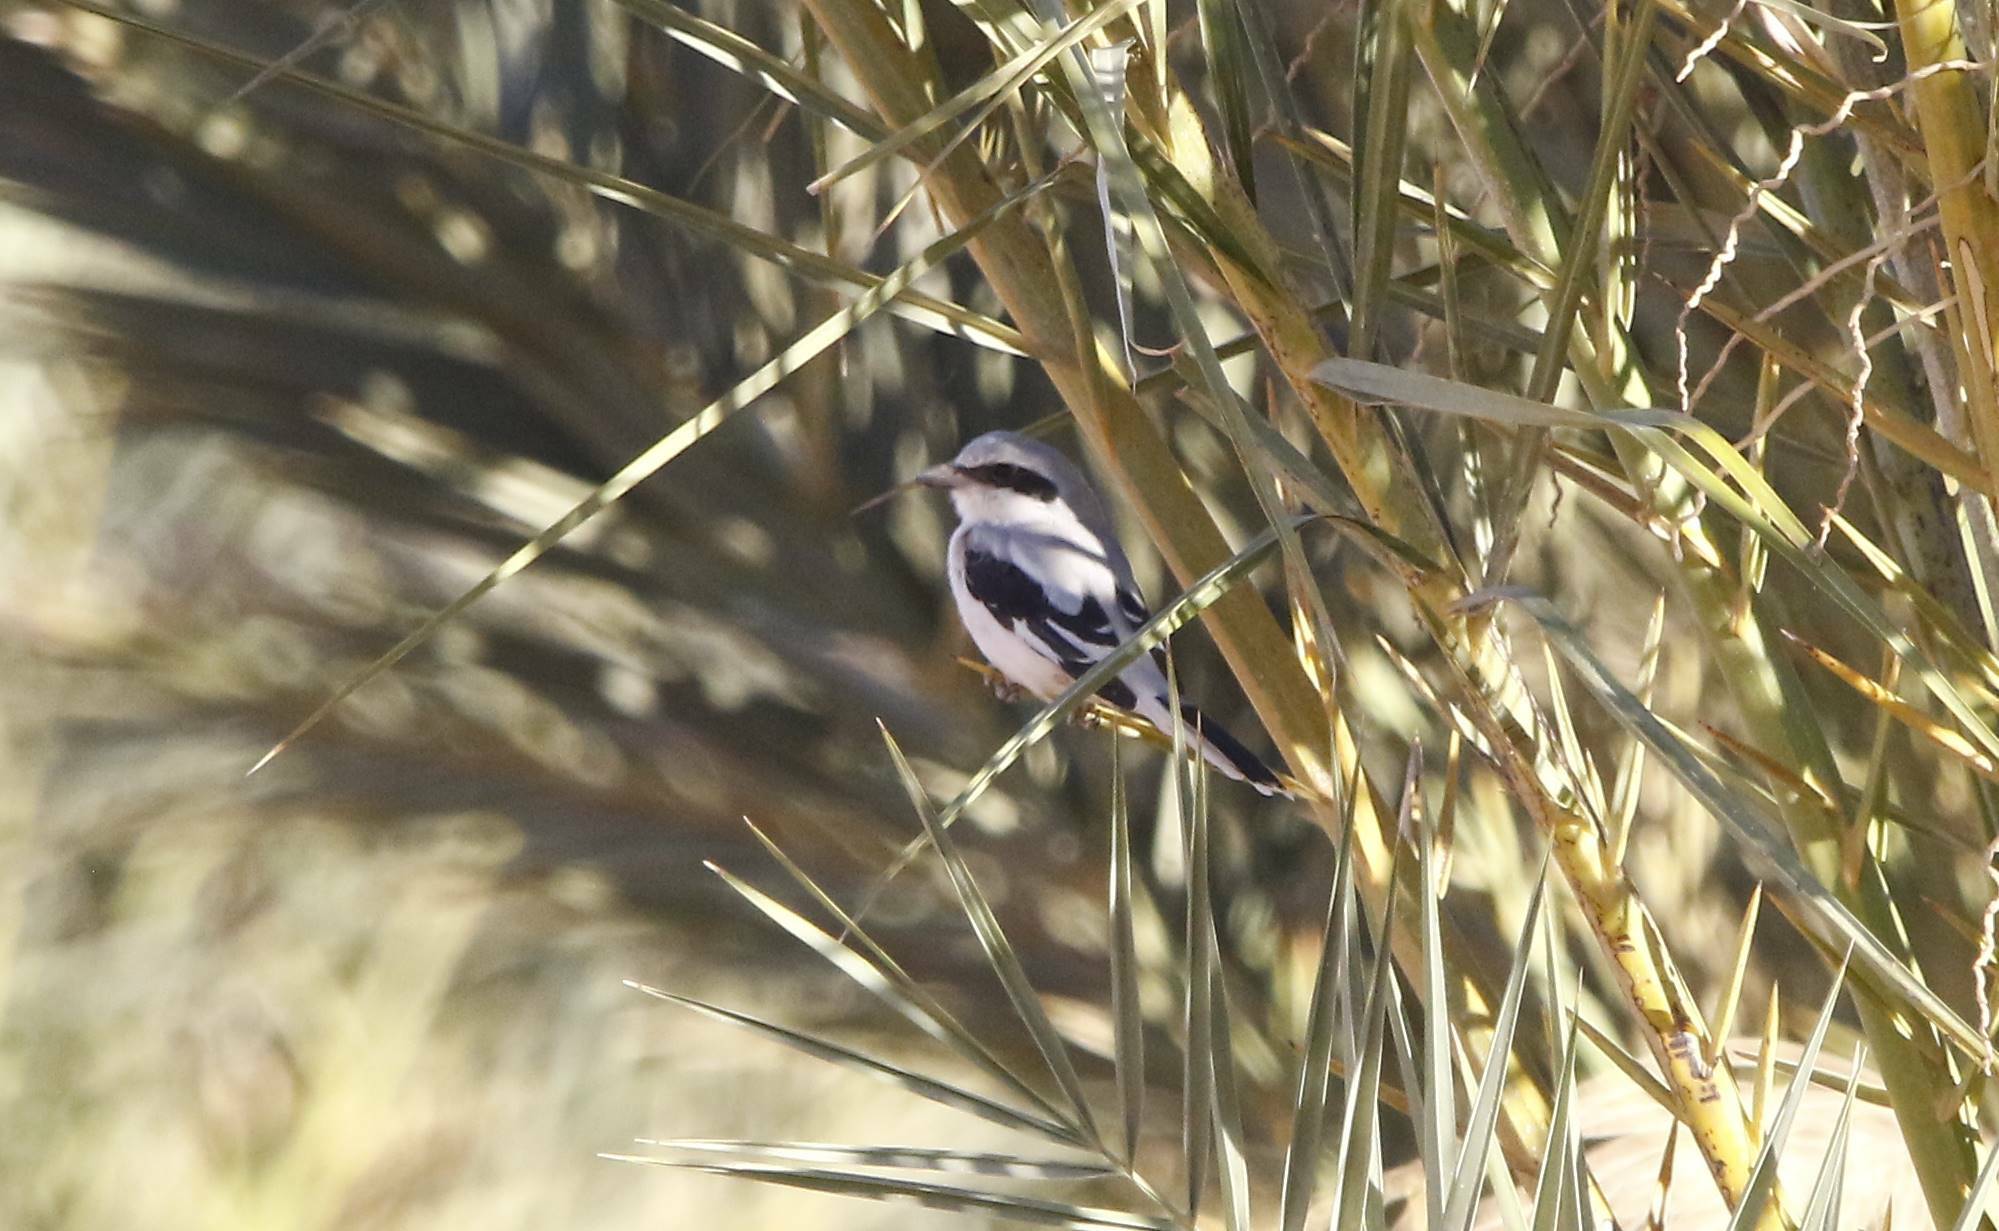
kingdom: Animalia
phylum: Chordata
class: Aves
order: Passeriformes
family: Laniidae
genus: Lanius
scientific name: Lanius excubitor
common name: Great grey shrike
